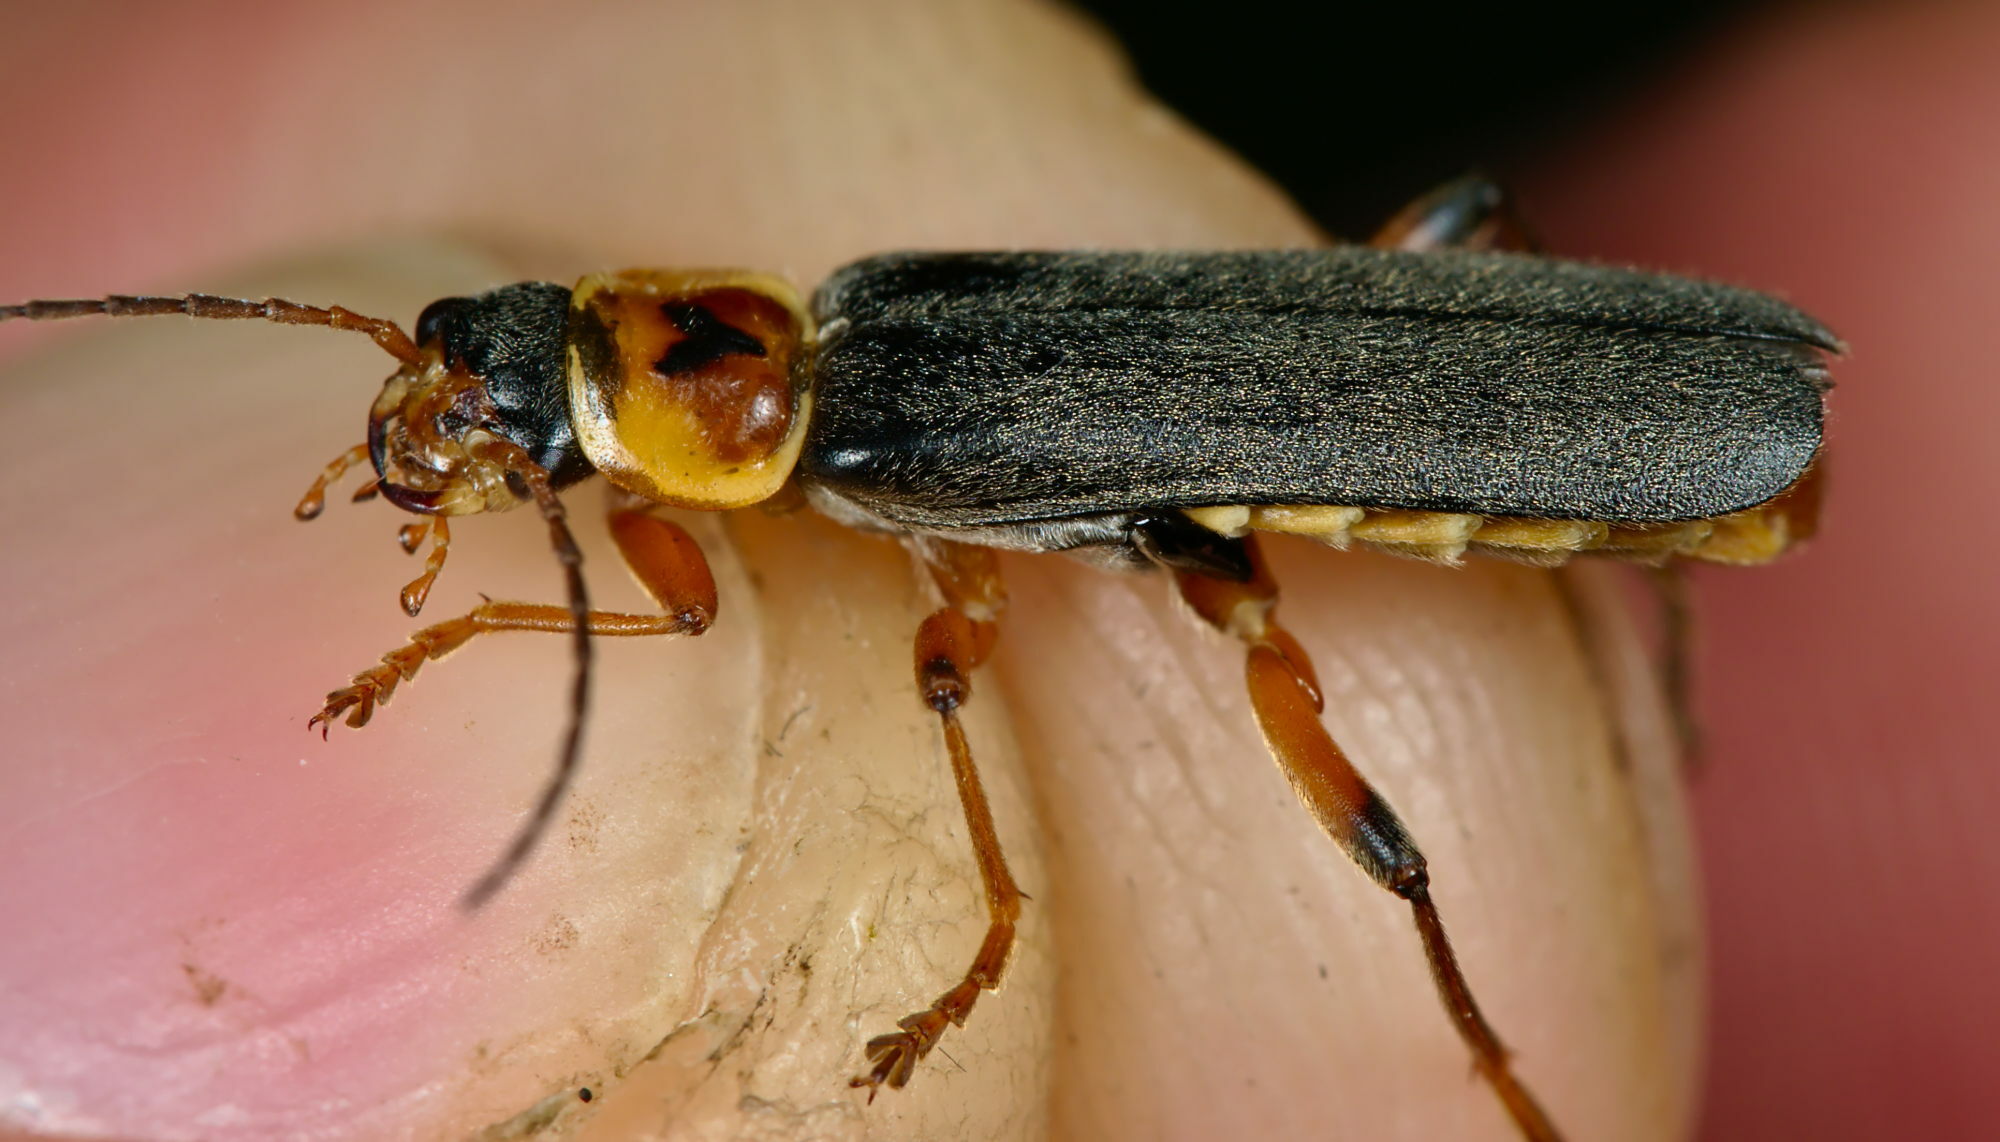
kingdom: Animalia
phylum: Arthropoda
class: Insecta
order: Coleoptera
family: Cantharidae
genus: Cantharis
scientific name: Cantharis nigricans
